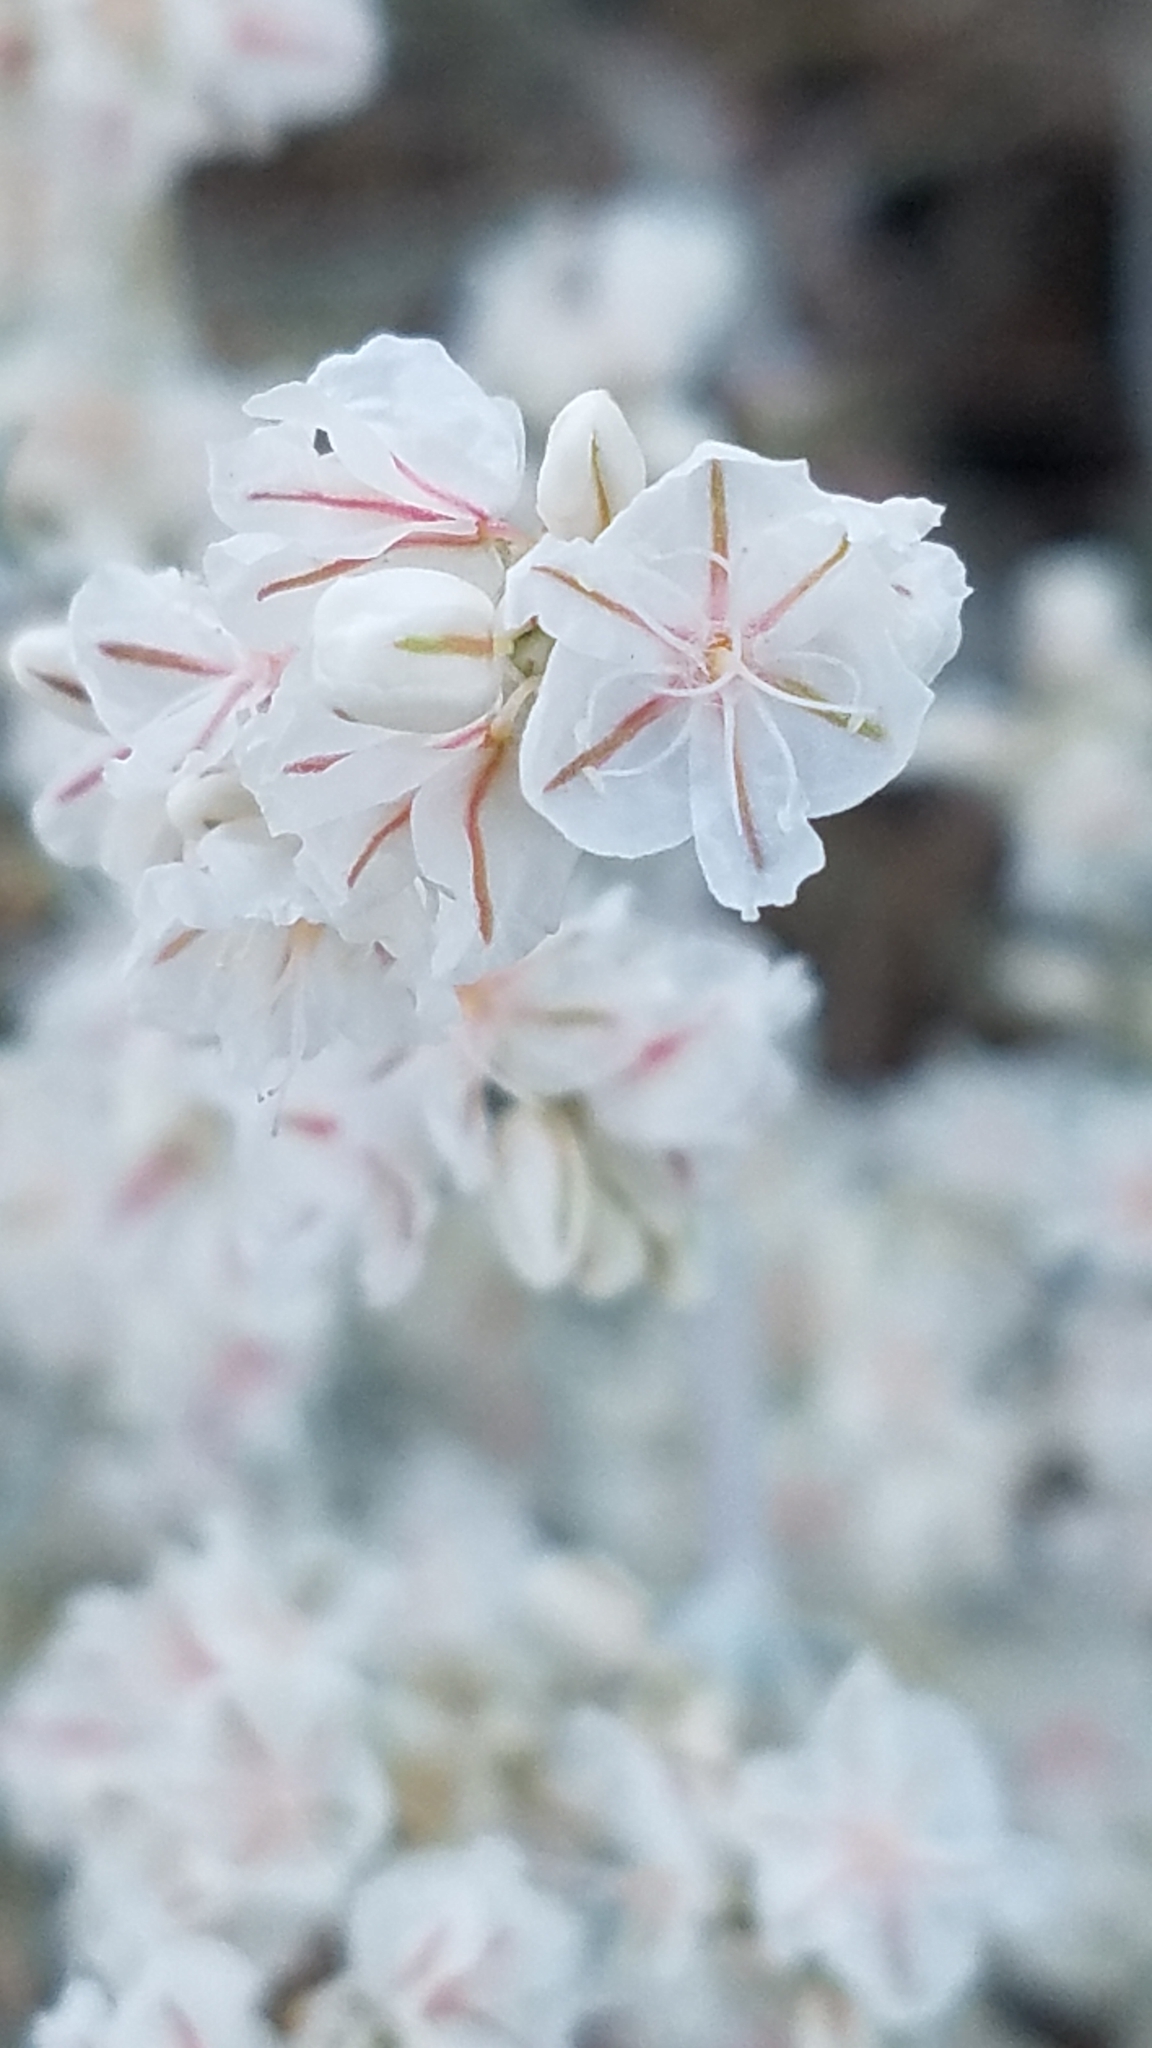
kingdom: Plantae
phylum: Tracheophyta
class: Magnoliopsida
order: Caryophyllales
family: Polygonaceae
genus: Eriogonum
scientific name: Eriogonum niveum
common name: Snow wild buckwheat
